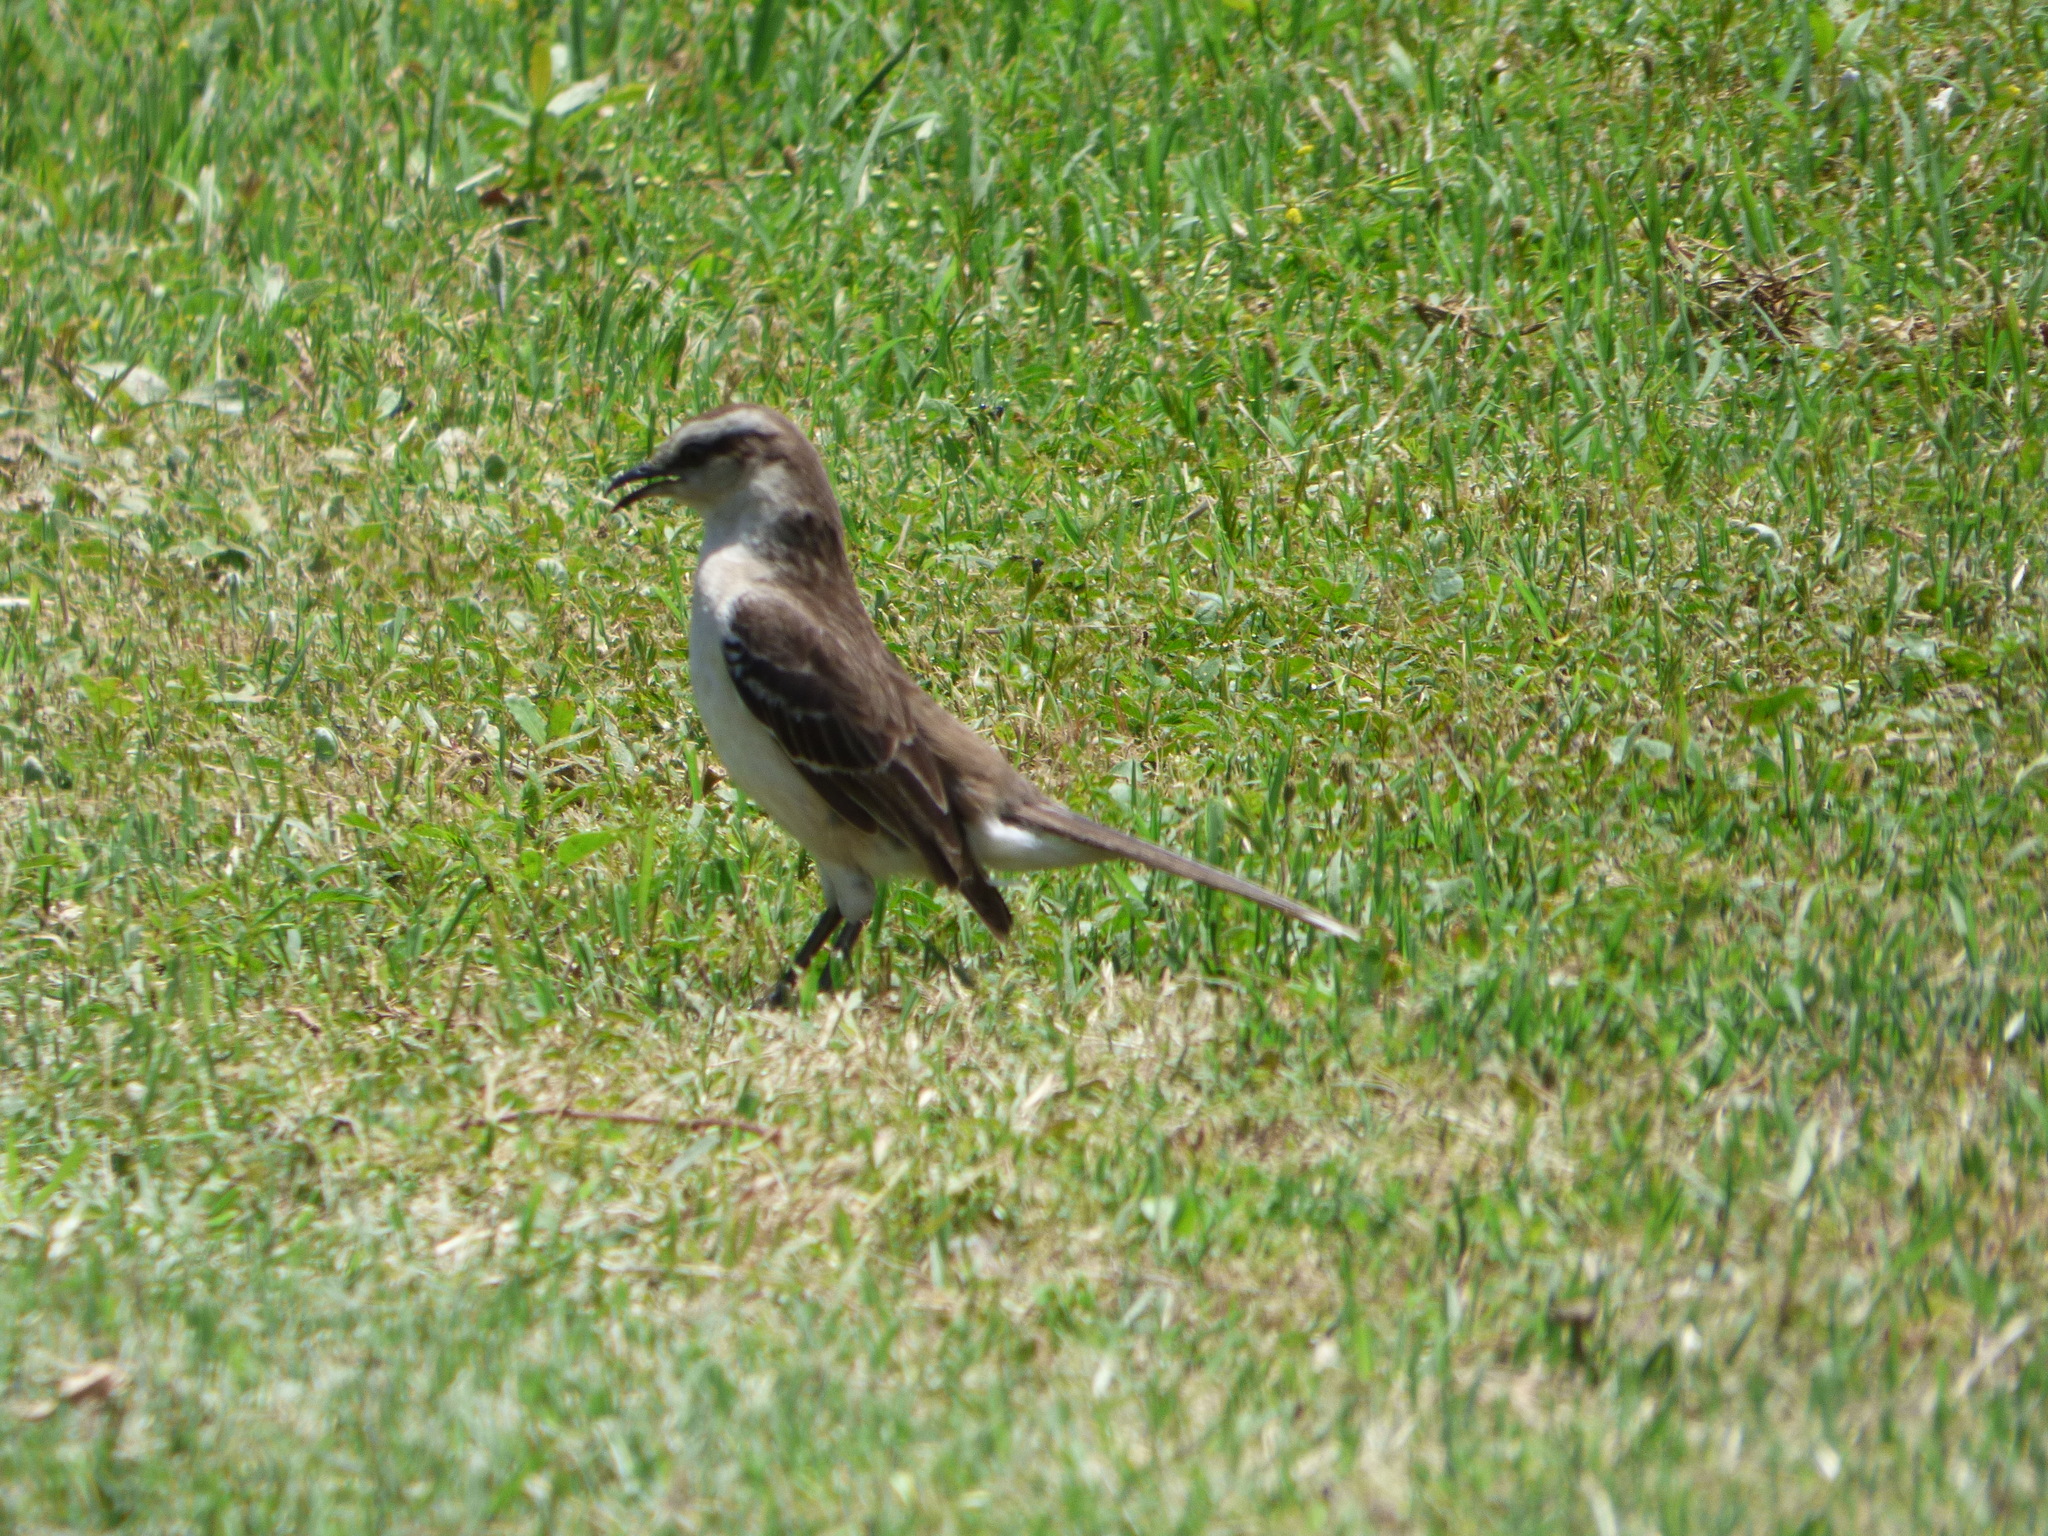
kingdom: Animalia
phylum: Chordata
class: Aves
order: Passeriformes
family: Mimidae
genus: Mimus
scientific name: Mimus saturninus
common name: Chalk-browed mockingbird
